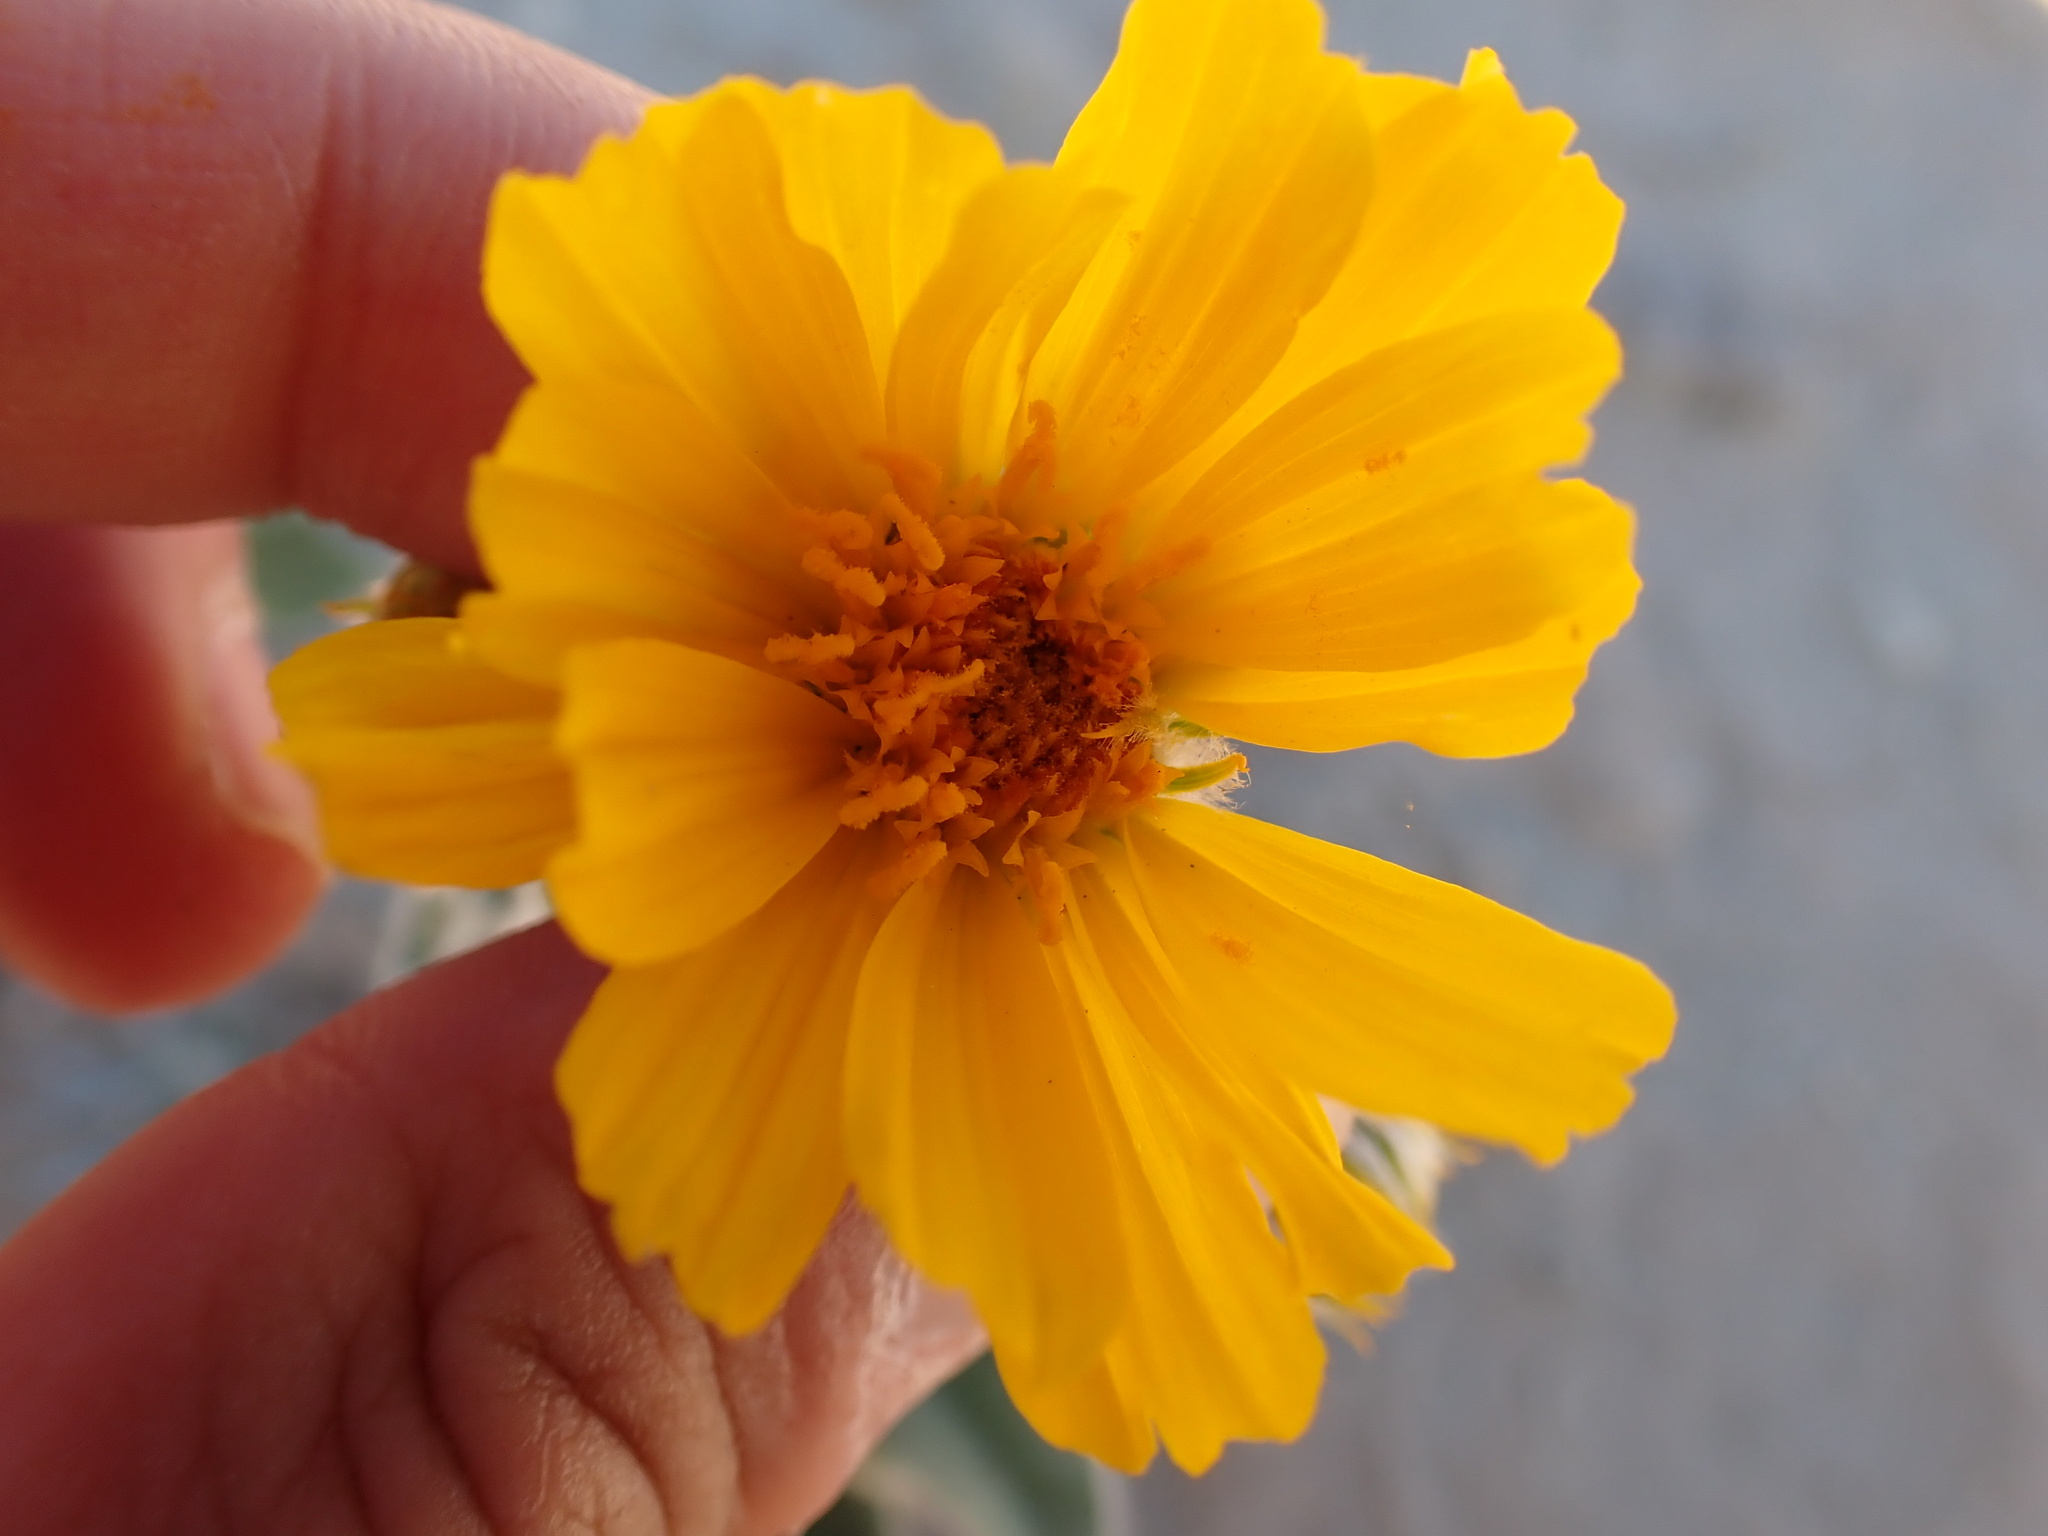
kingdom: Plantae
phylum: Tracheophyta
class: Magnoliopsida
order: Asterales
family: Asteraceae
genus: Geraea
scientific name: Geraea canescens
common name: Desert-gold
